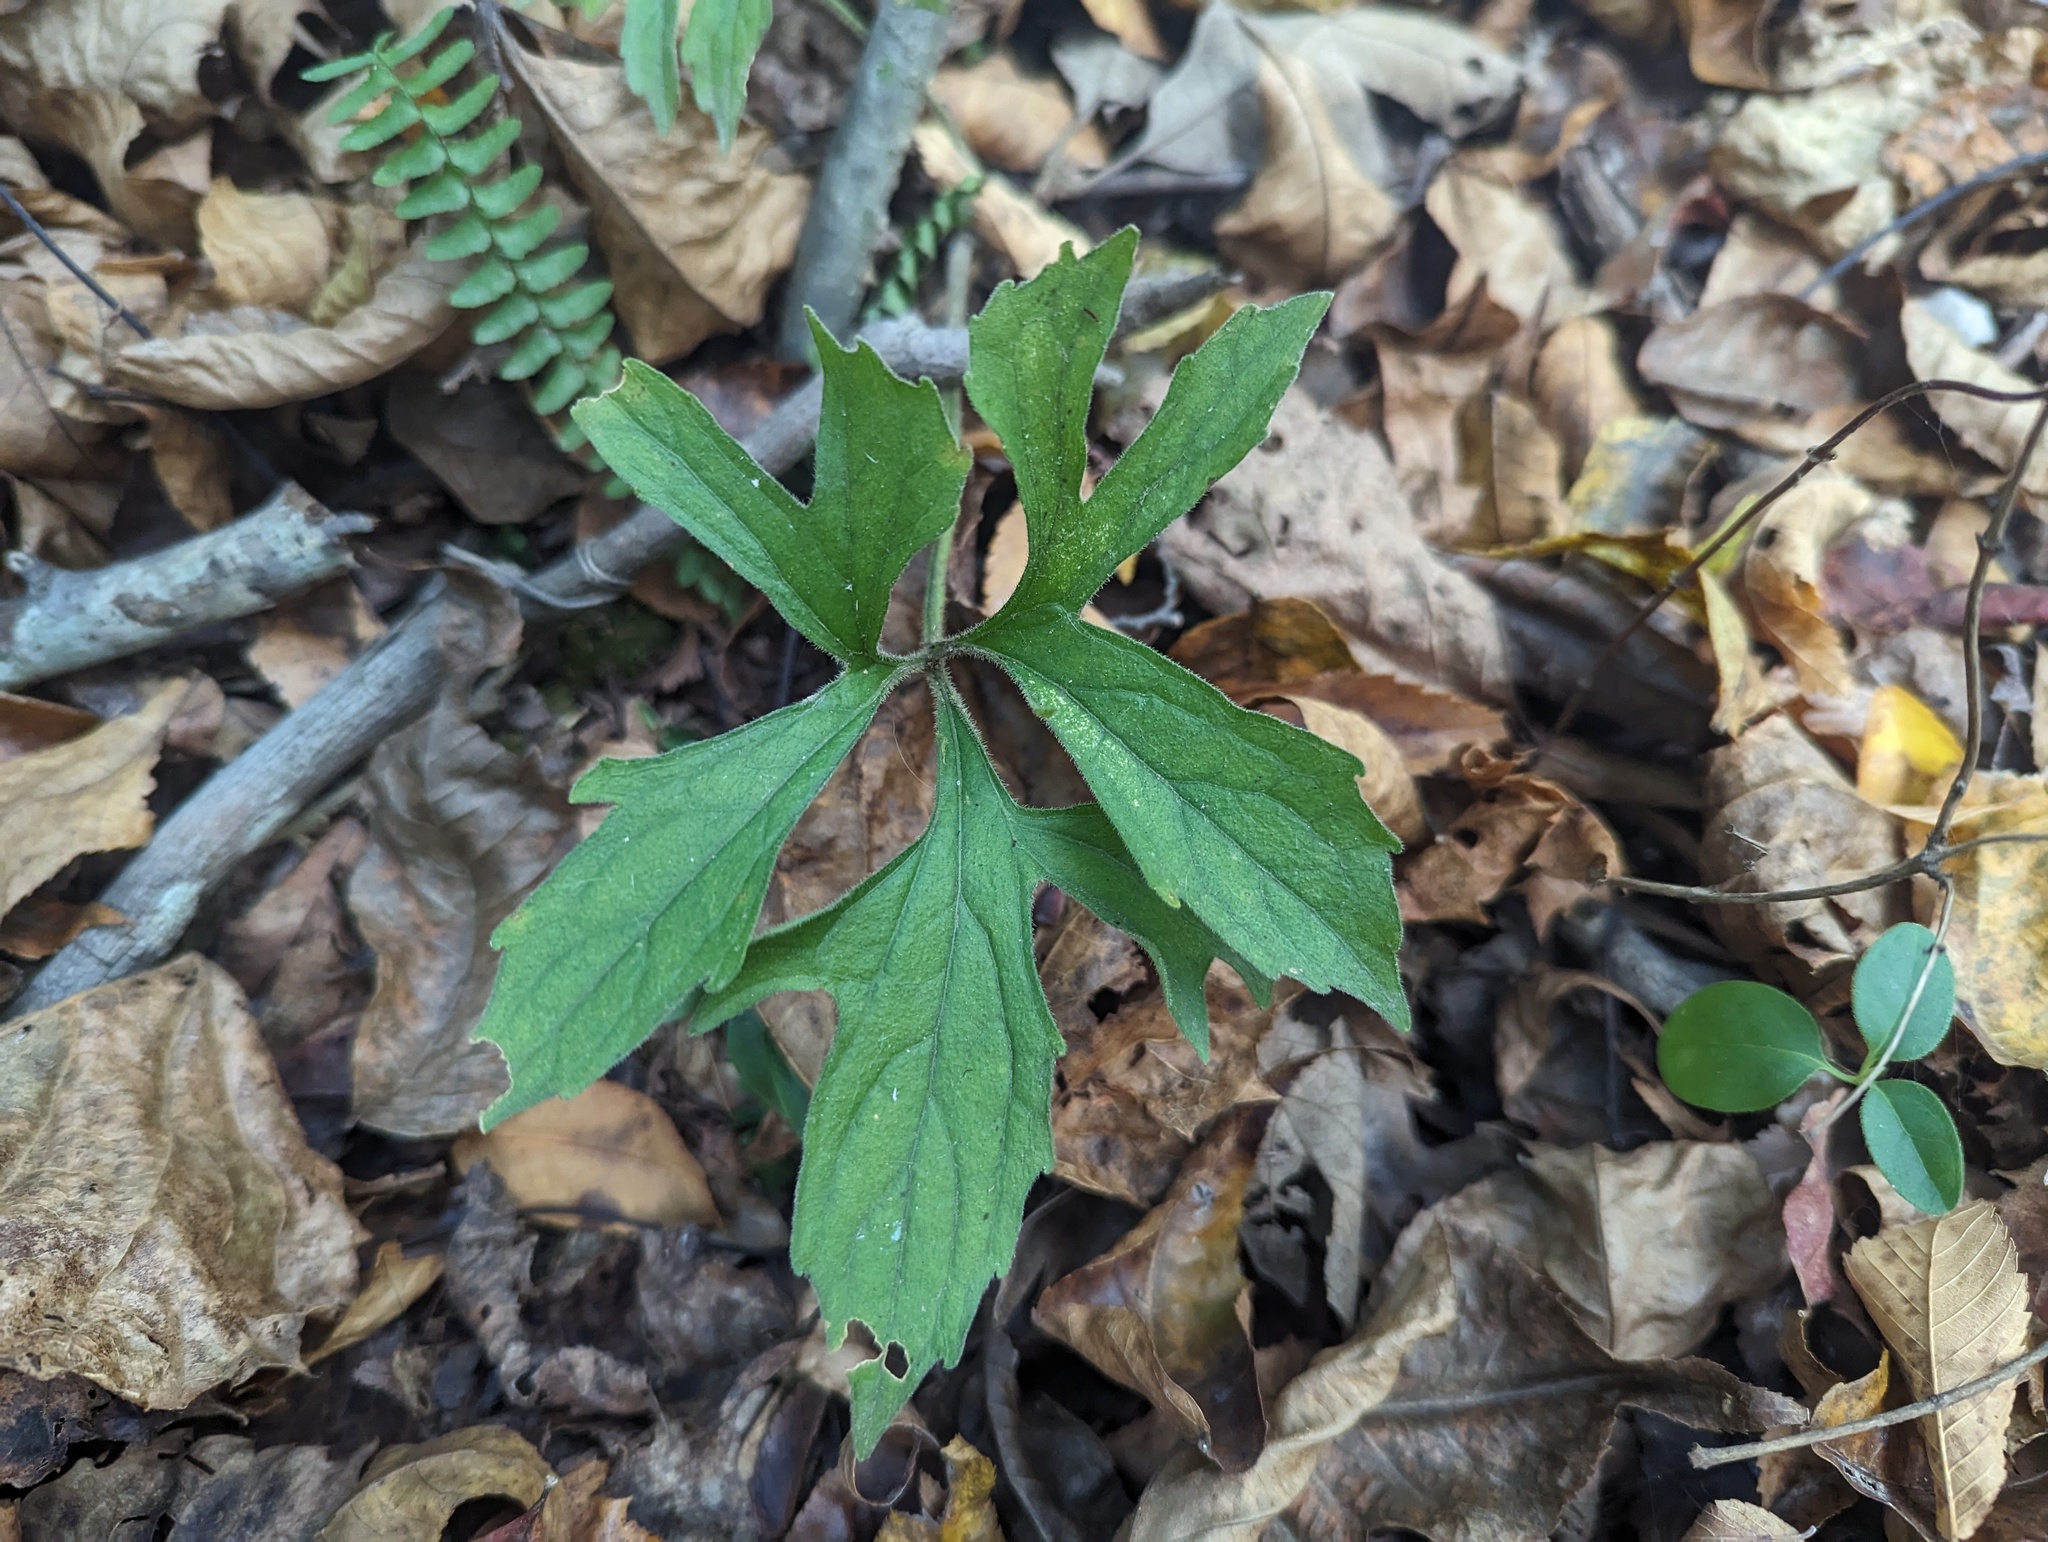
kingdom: Plantae
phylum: Tracheophyta
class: Magnoliopsida
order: Malpighiales
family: Violaceae
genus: Viola
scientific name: Viola palmata
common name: Early blue violet
